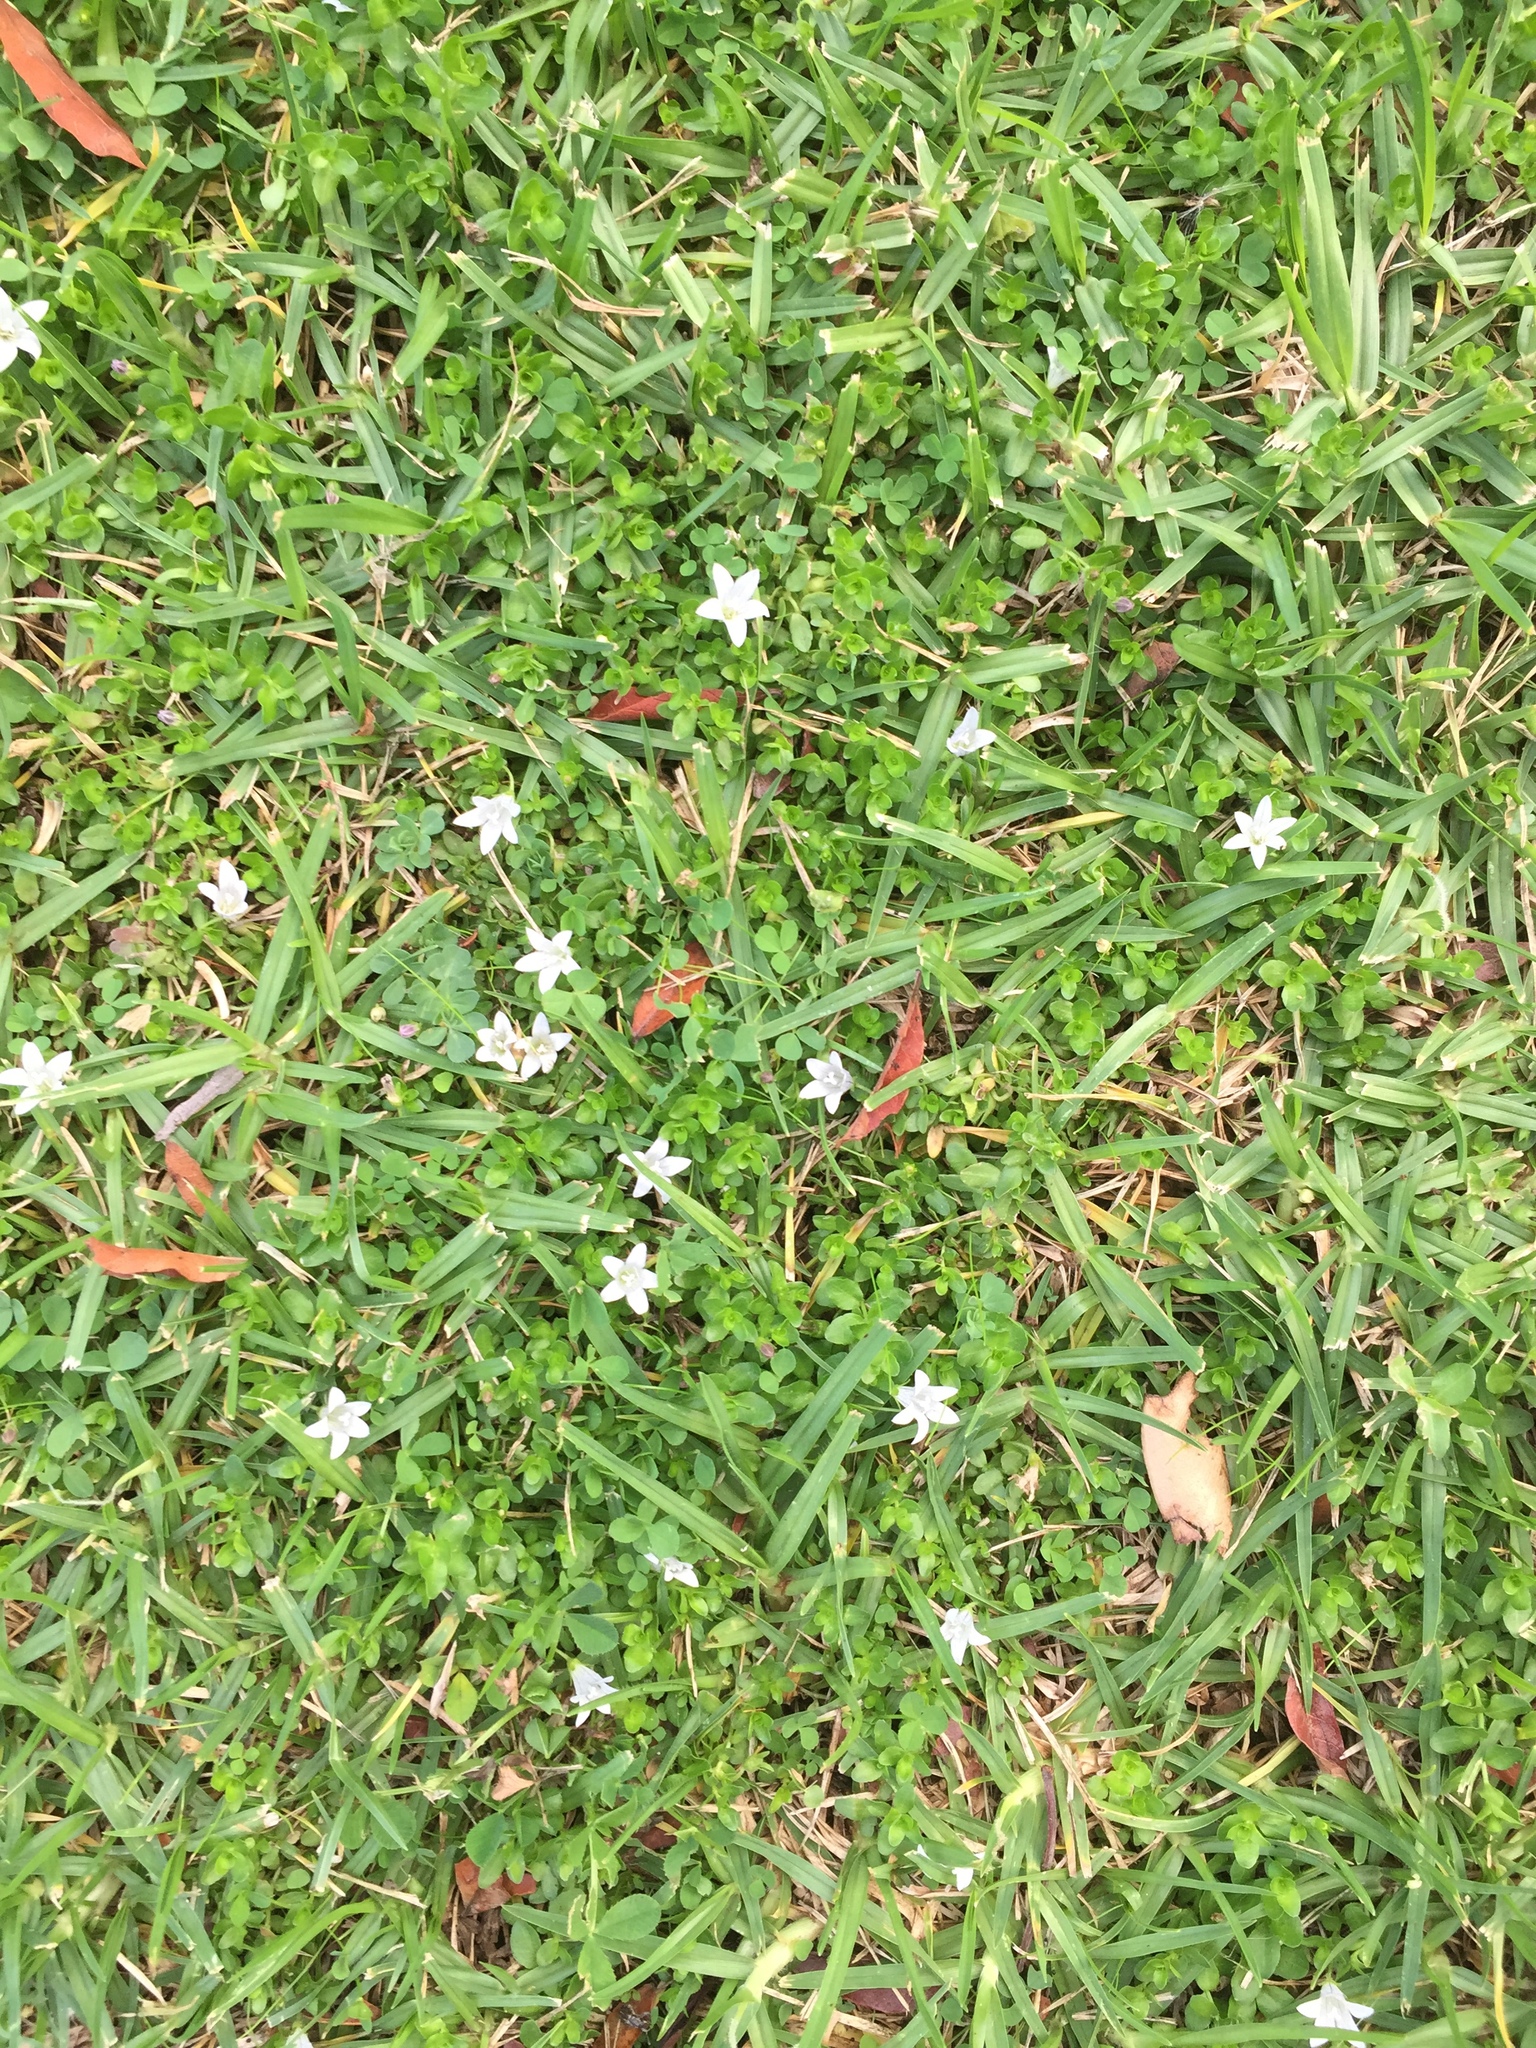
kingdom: Plantae
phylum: Tracheophyta
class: Magnoliopsida
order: Asterales
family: Campanulaceae
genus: Wahlenbergia
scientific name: Wahlenbergia procumbens
